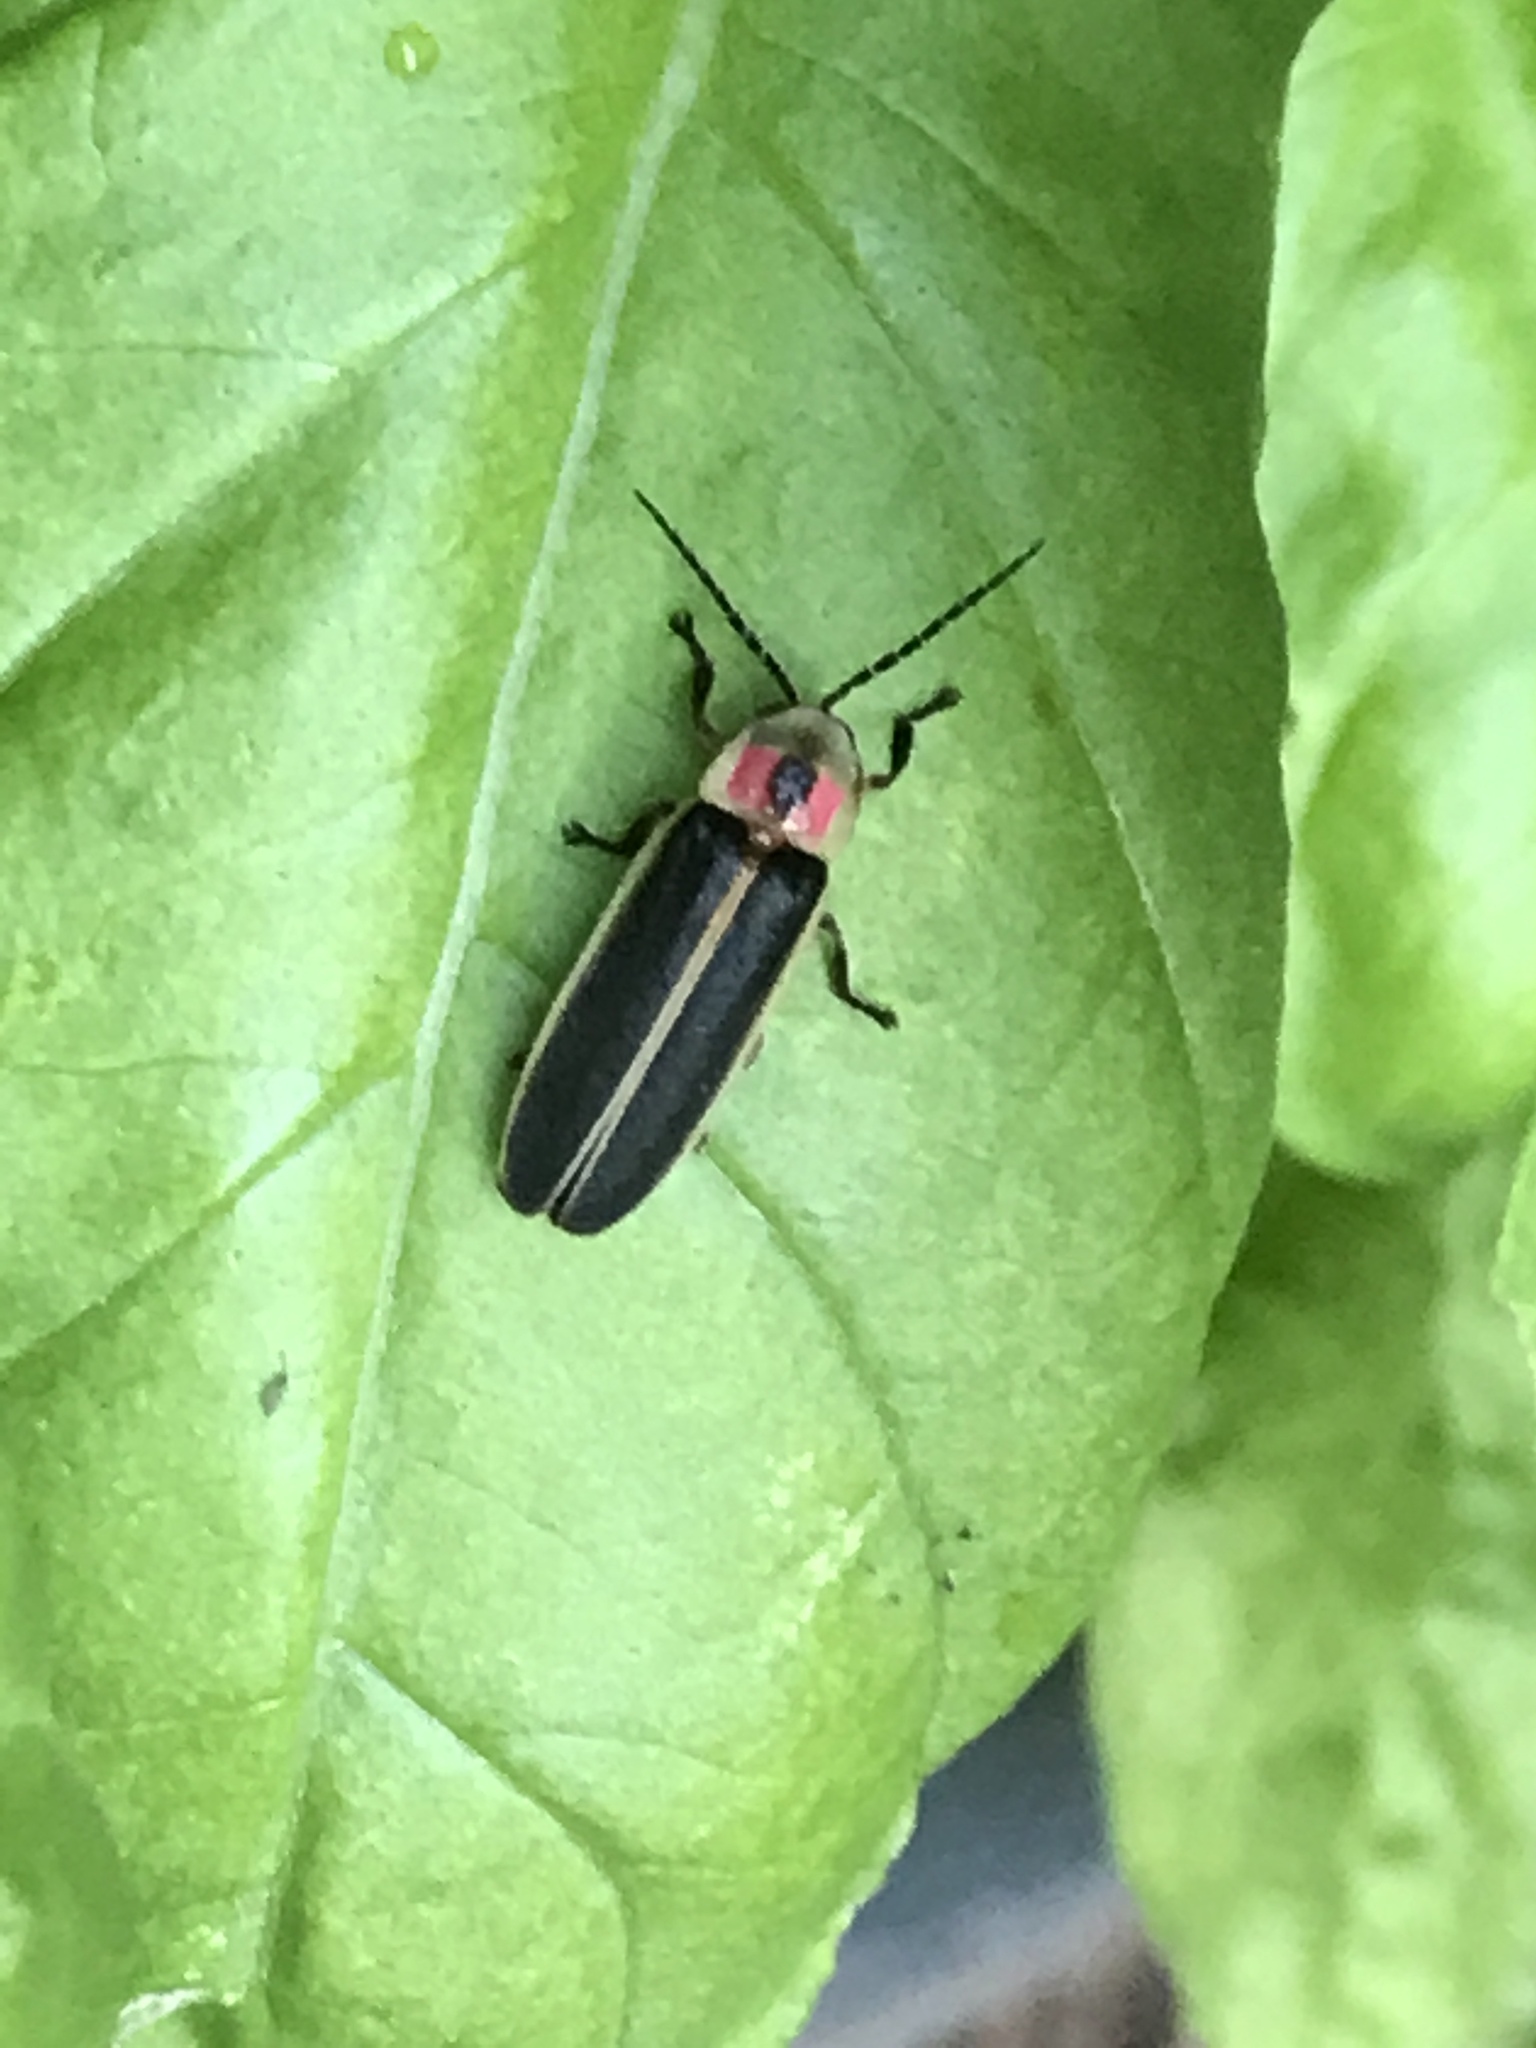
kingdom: Animalia
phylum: Arthropoda
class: Insecta
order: Coleoptera
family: Lampyridae
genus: Photinus
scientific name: Photinus pyralis
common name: Big dipper firefly
